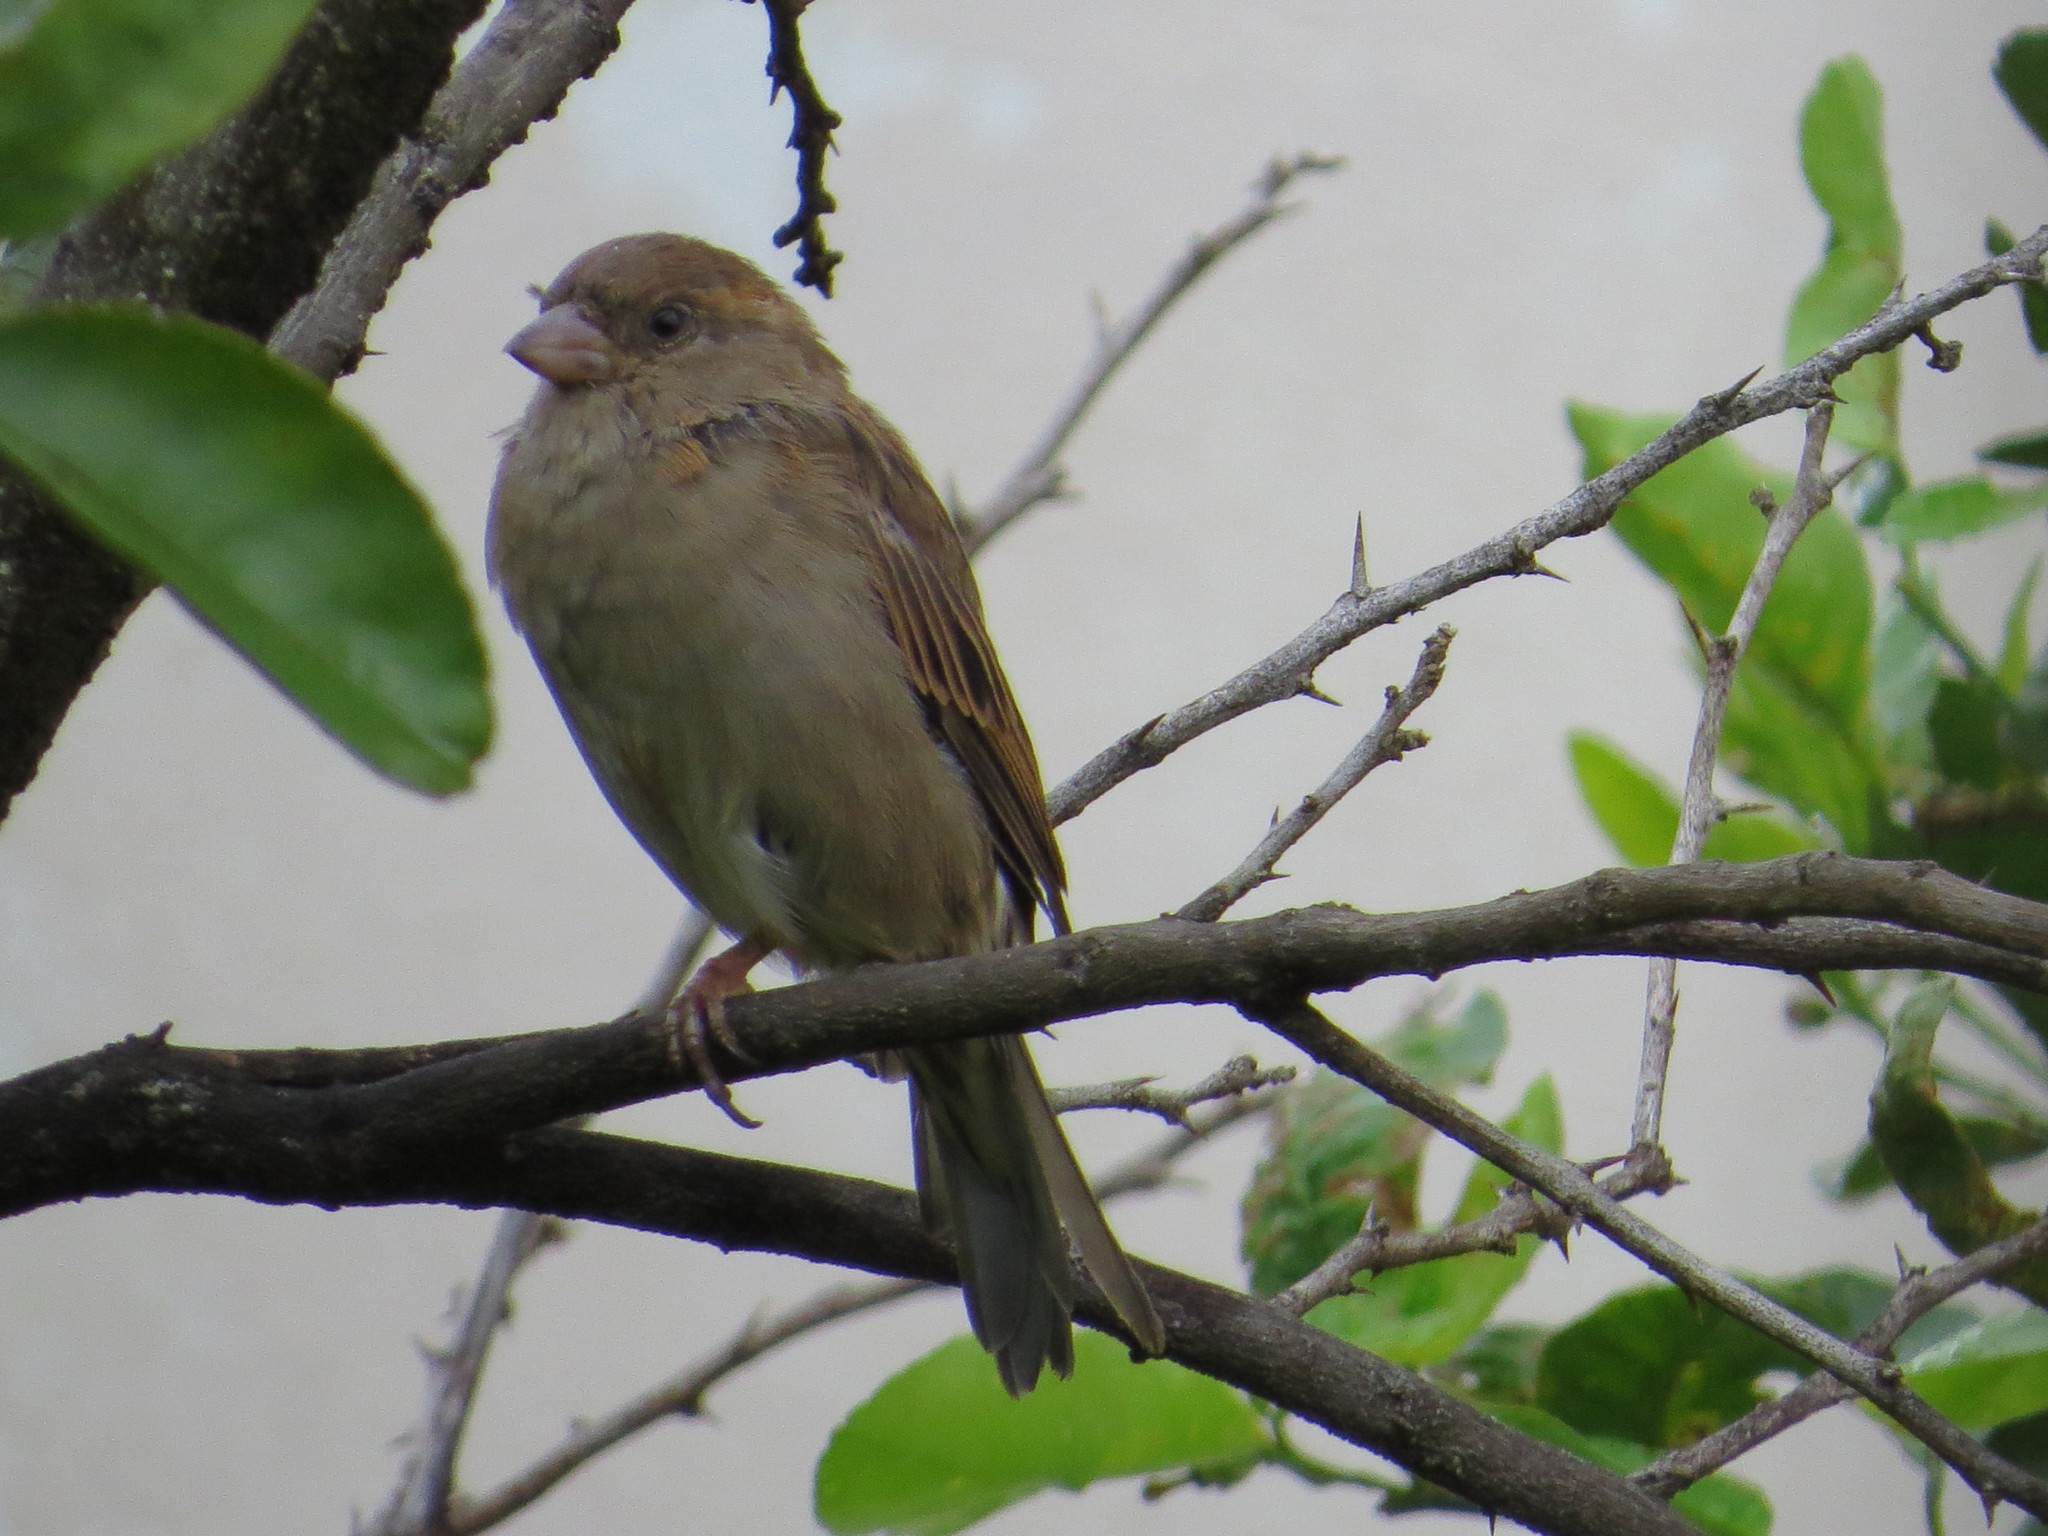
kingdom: Animalia
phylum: Chordata
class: Aves
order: Passeriformes
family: Passeridae
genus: Passer
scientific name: Passer domesticus
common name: House sparrow
